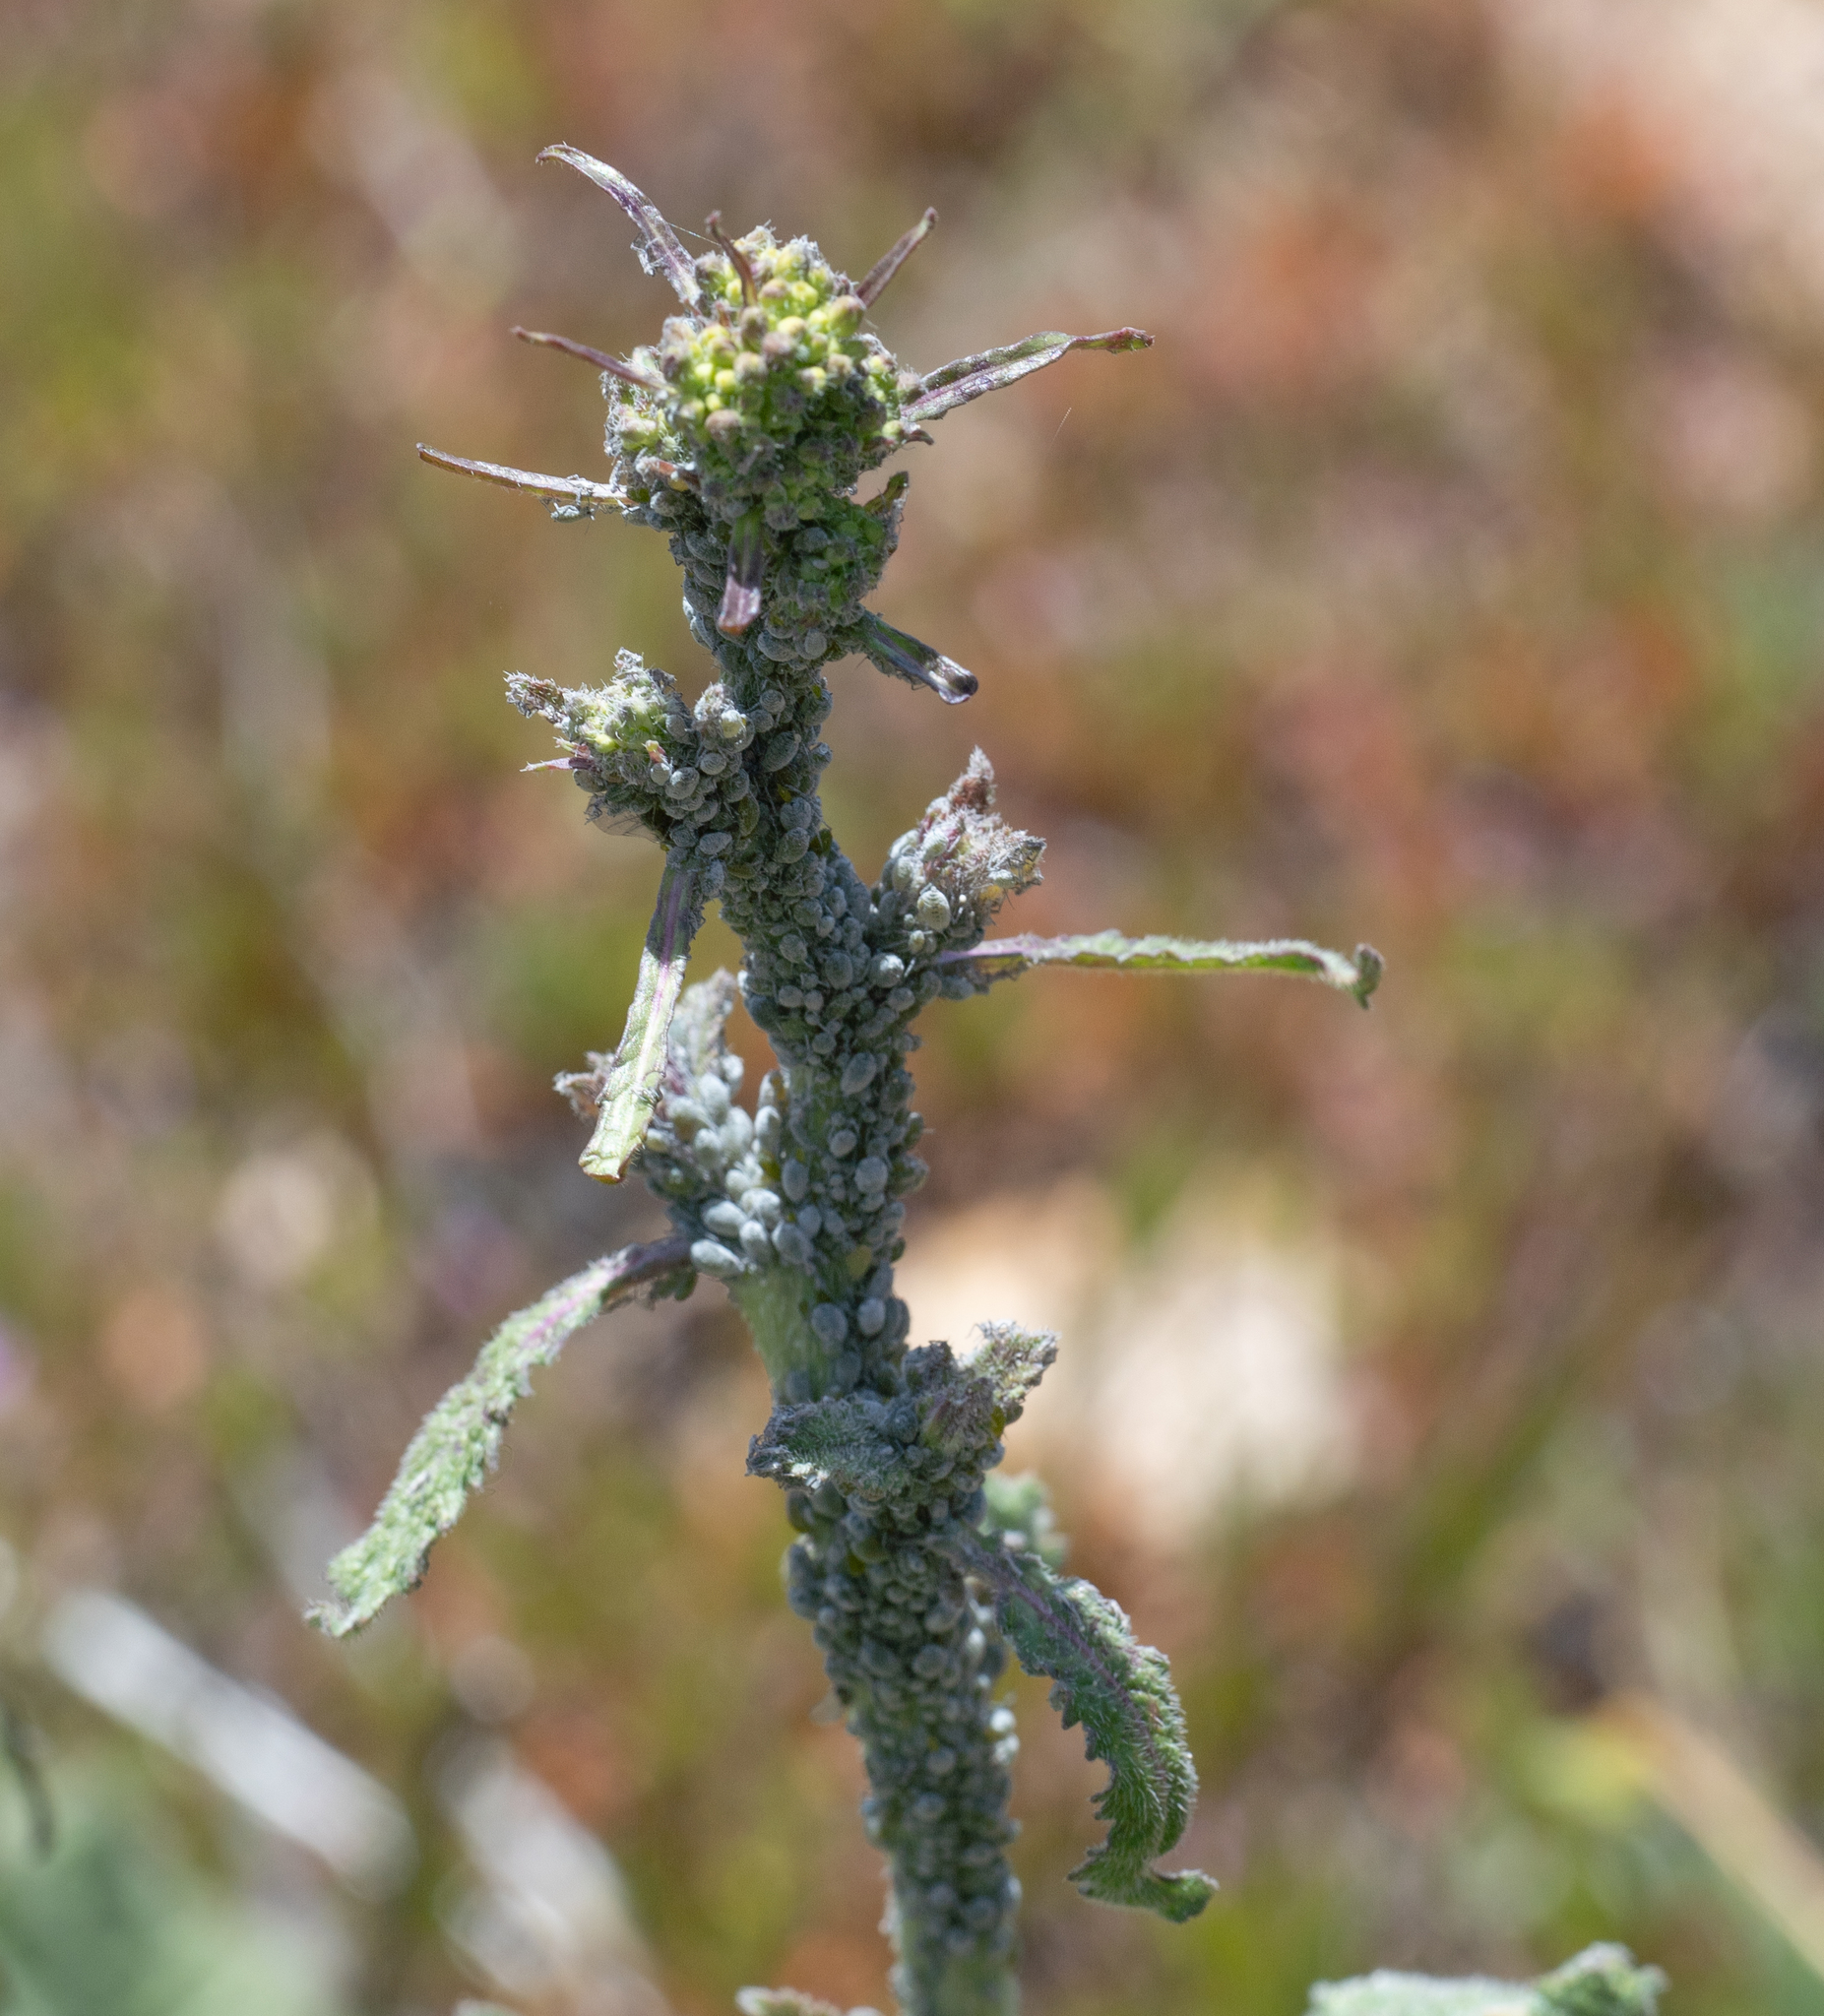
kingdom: Animalia
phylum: Arthropoda
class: Insecta
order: Hemiptera
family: Aphididae
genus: Brevicoryne
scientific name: Brevicoryne brassicae
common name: Cabbage aphid
